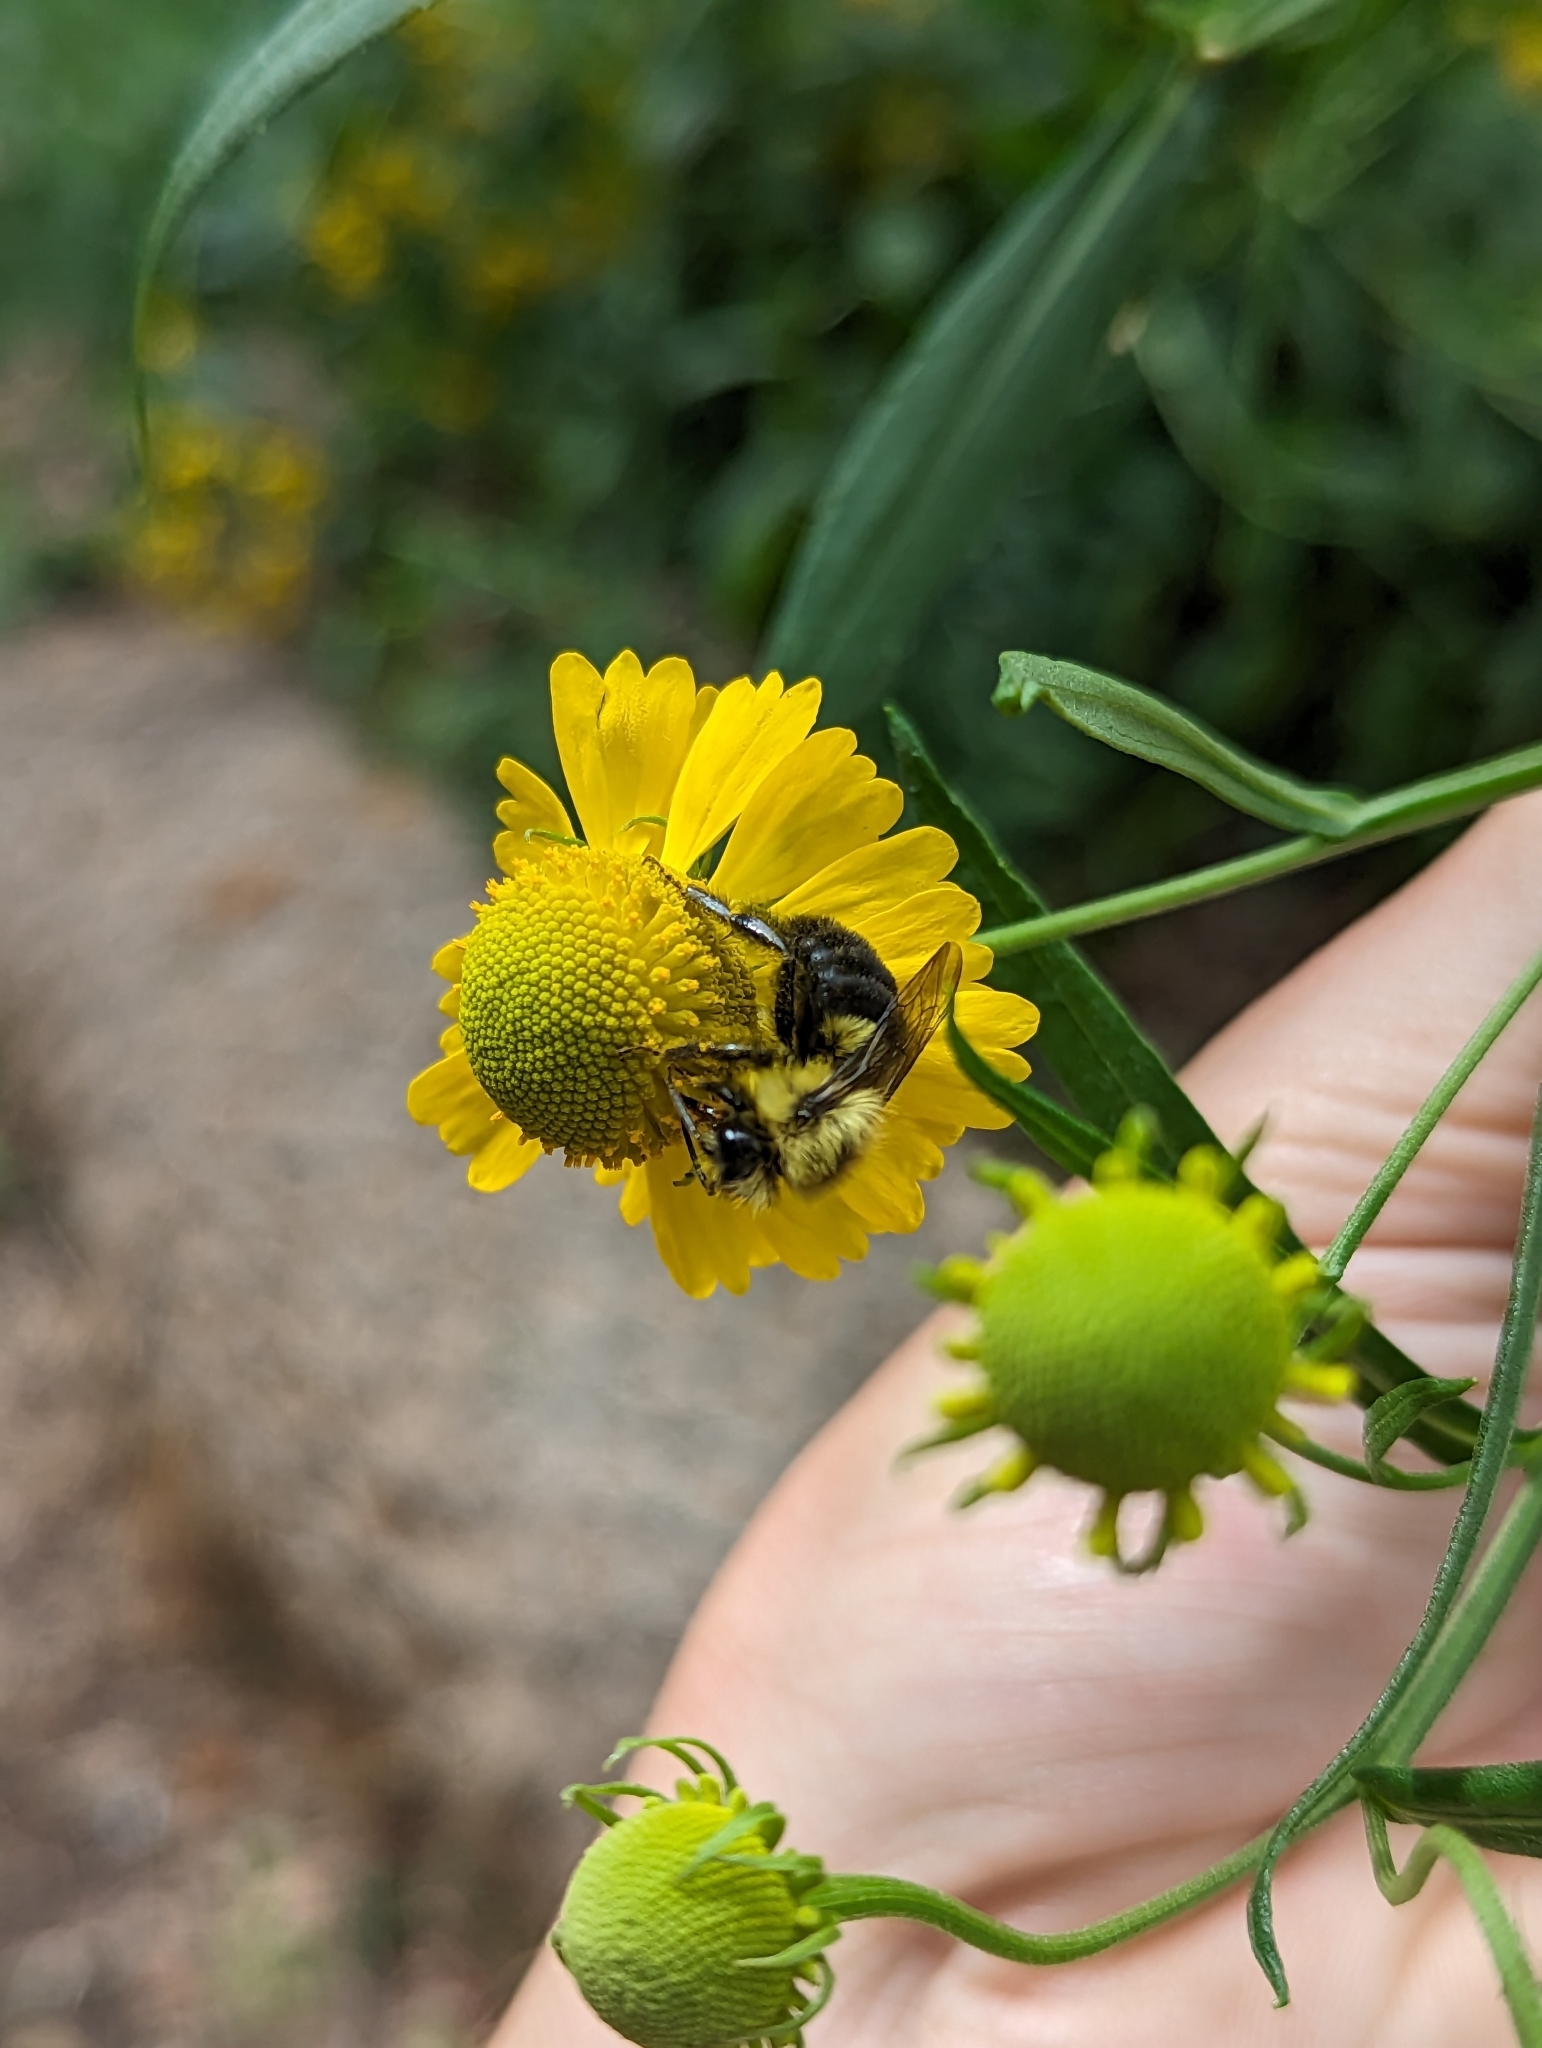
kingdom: Animalia
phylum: Arthropoda
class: Insecta
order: Hymenoptera
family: Apidae
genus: Bombus
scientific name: Bombus impatiens
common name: Common eastern bumble bee
